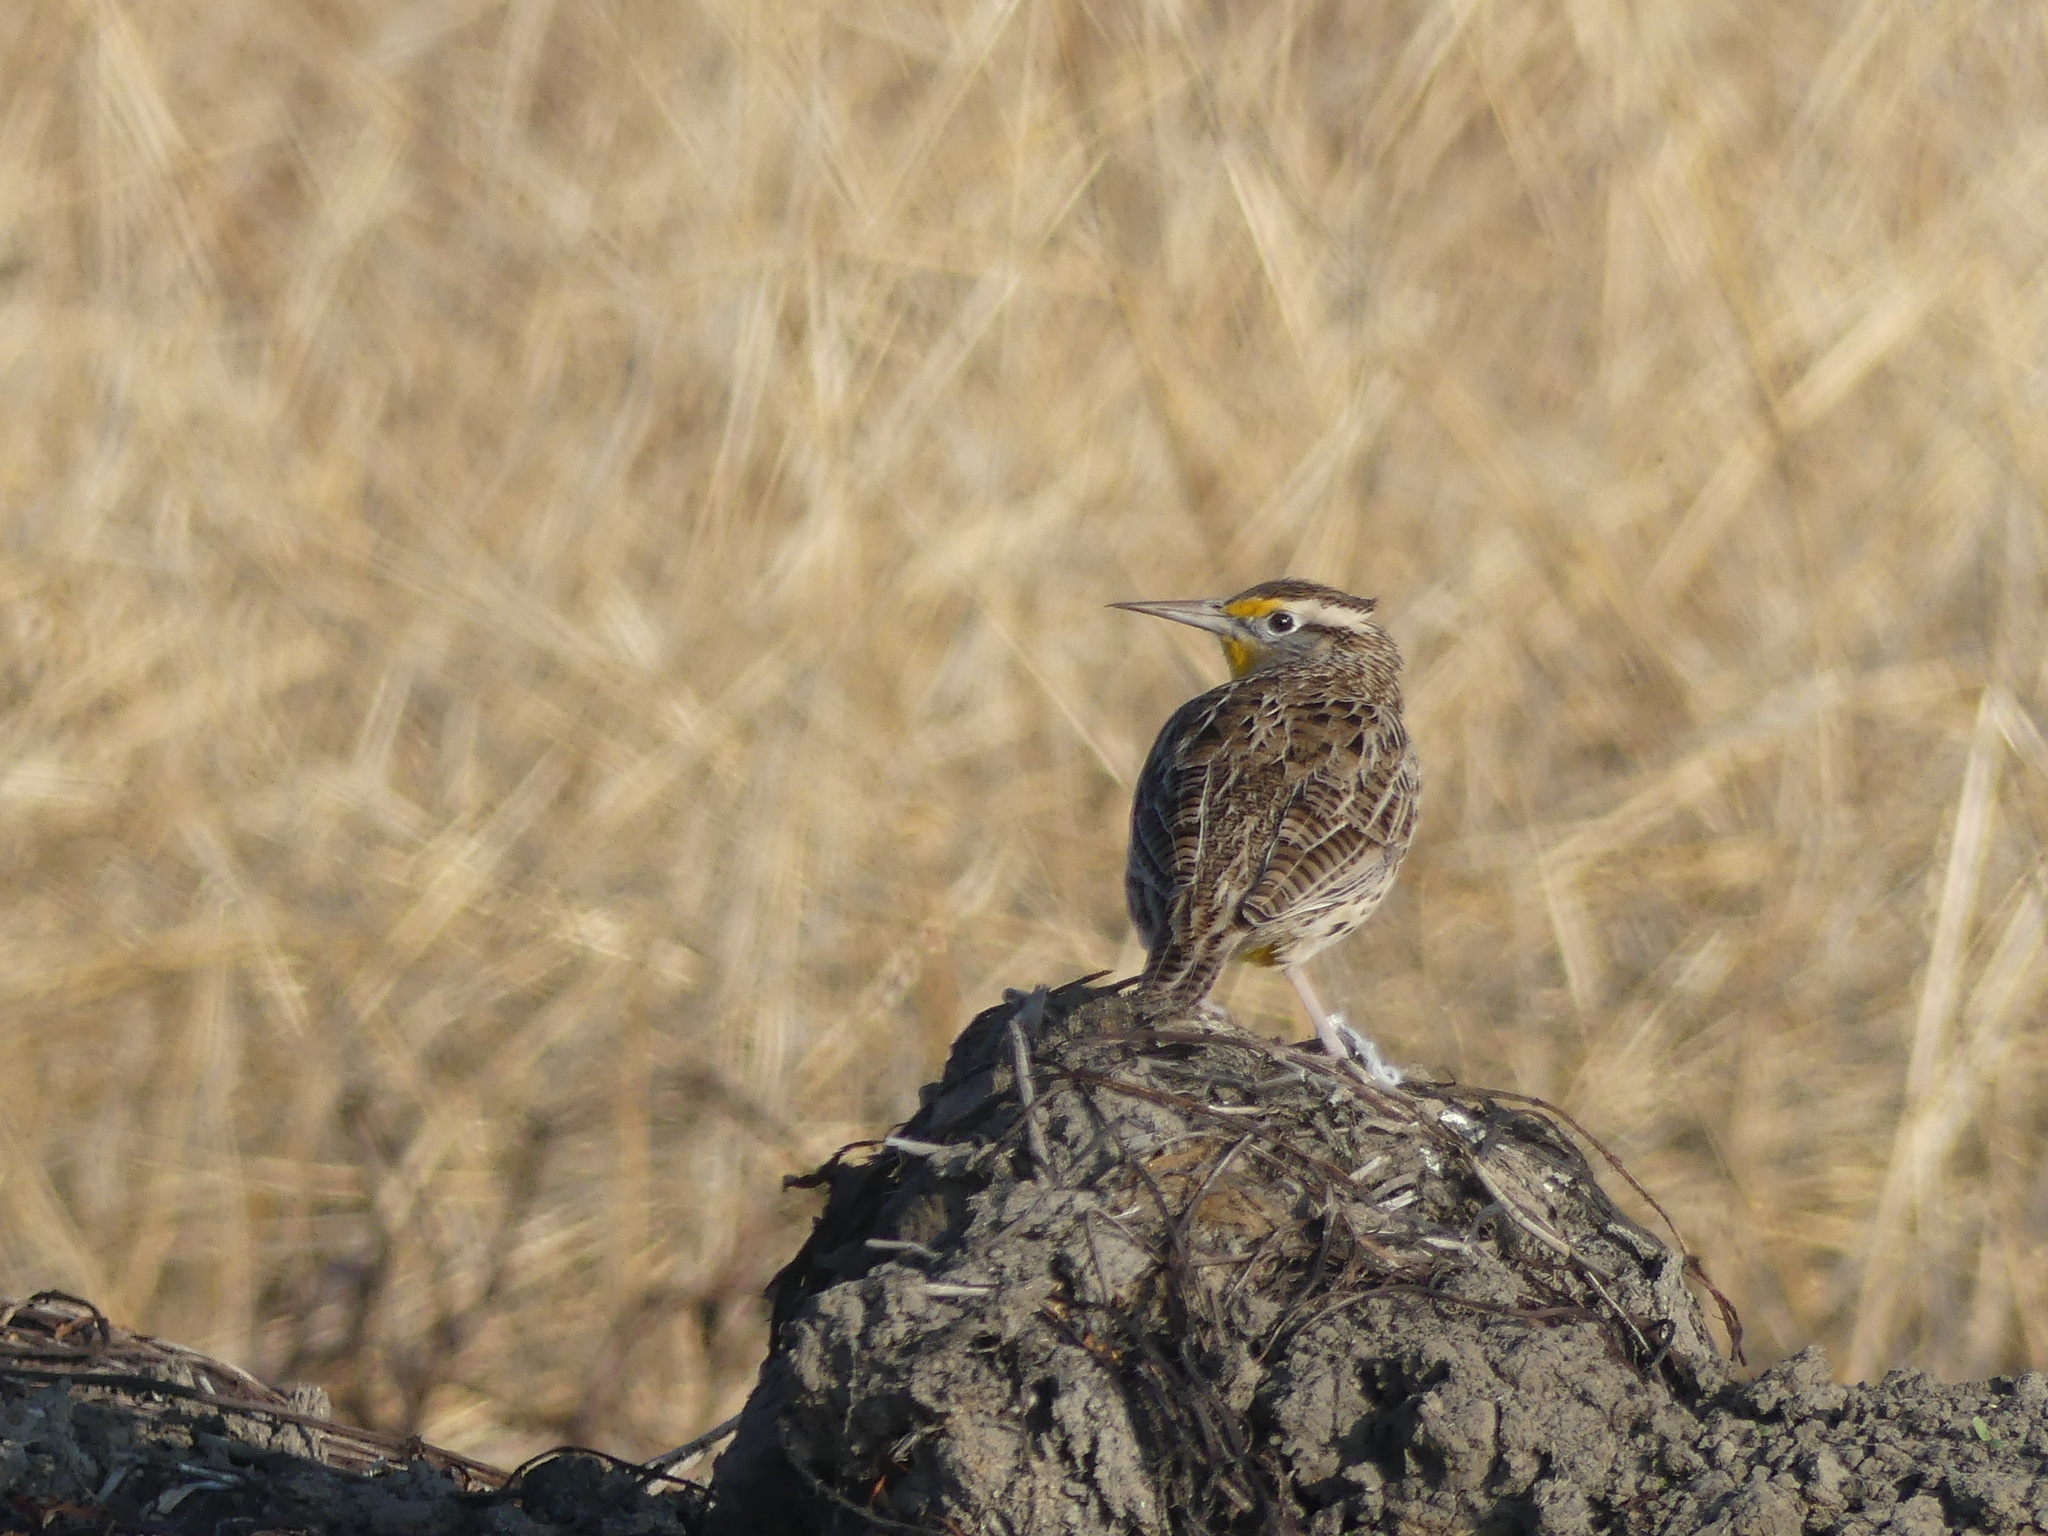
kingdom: Animalia
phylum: Chordata
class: Aves
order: Passeriformes
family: Icteridae
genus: Sturnella
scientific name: Sturnella neglecta
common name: Western meadowlark
